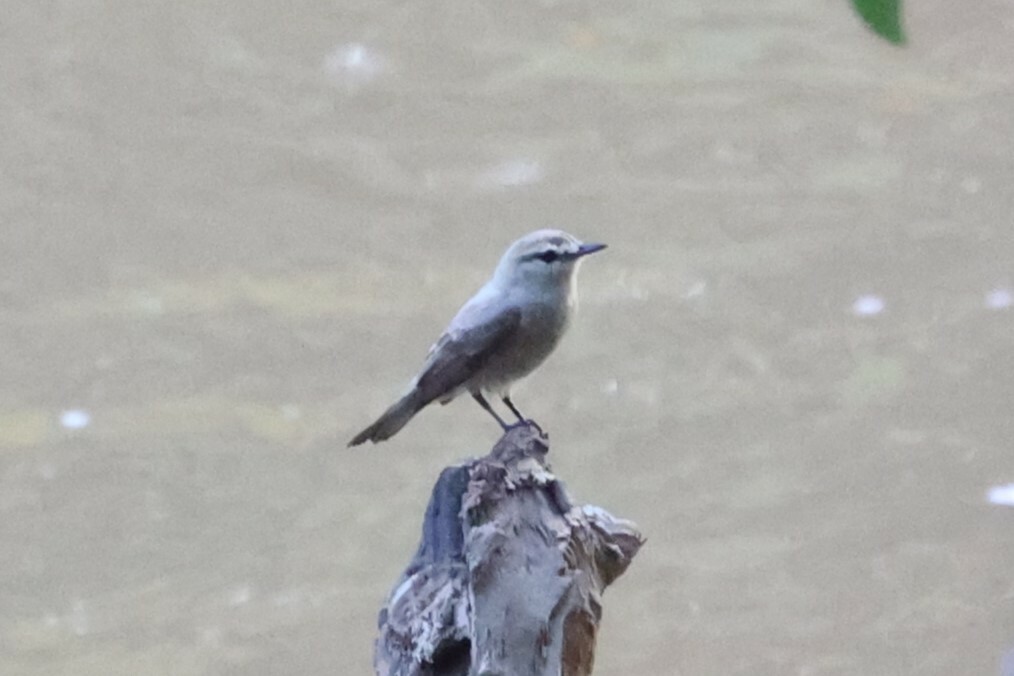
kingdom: Animalia
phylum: Chordata
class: Aves
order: Passeriformes
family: Tyrannidae
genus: Ochthornis
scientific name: Ochthornis littoralis
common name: Drab water tyrant
